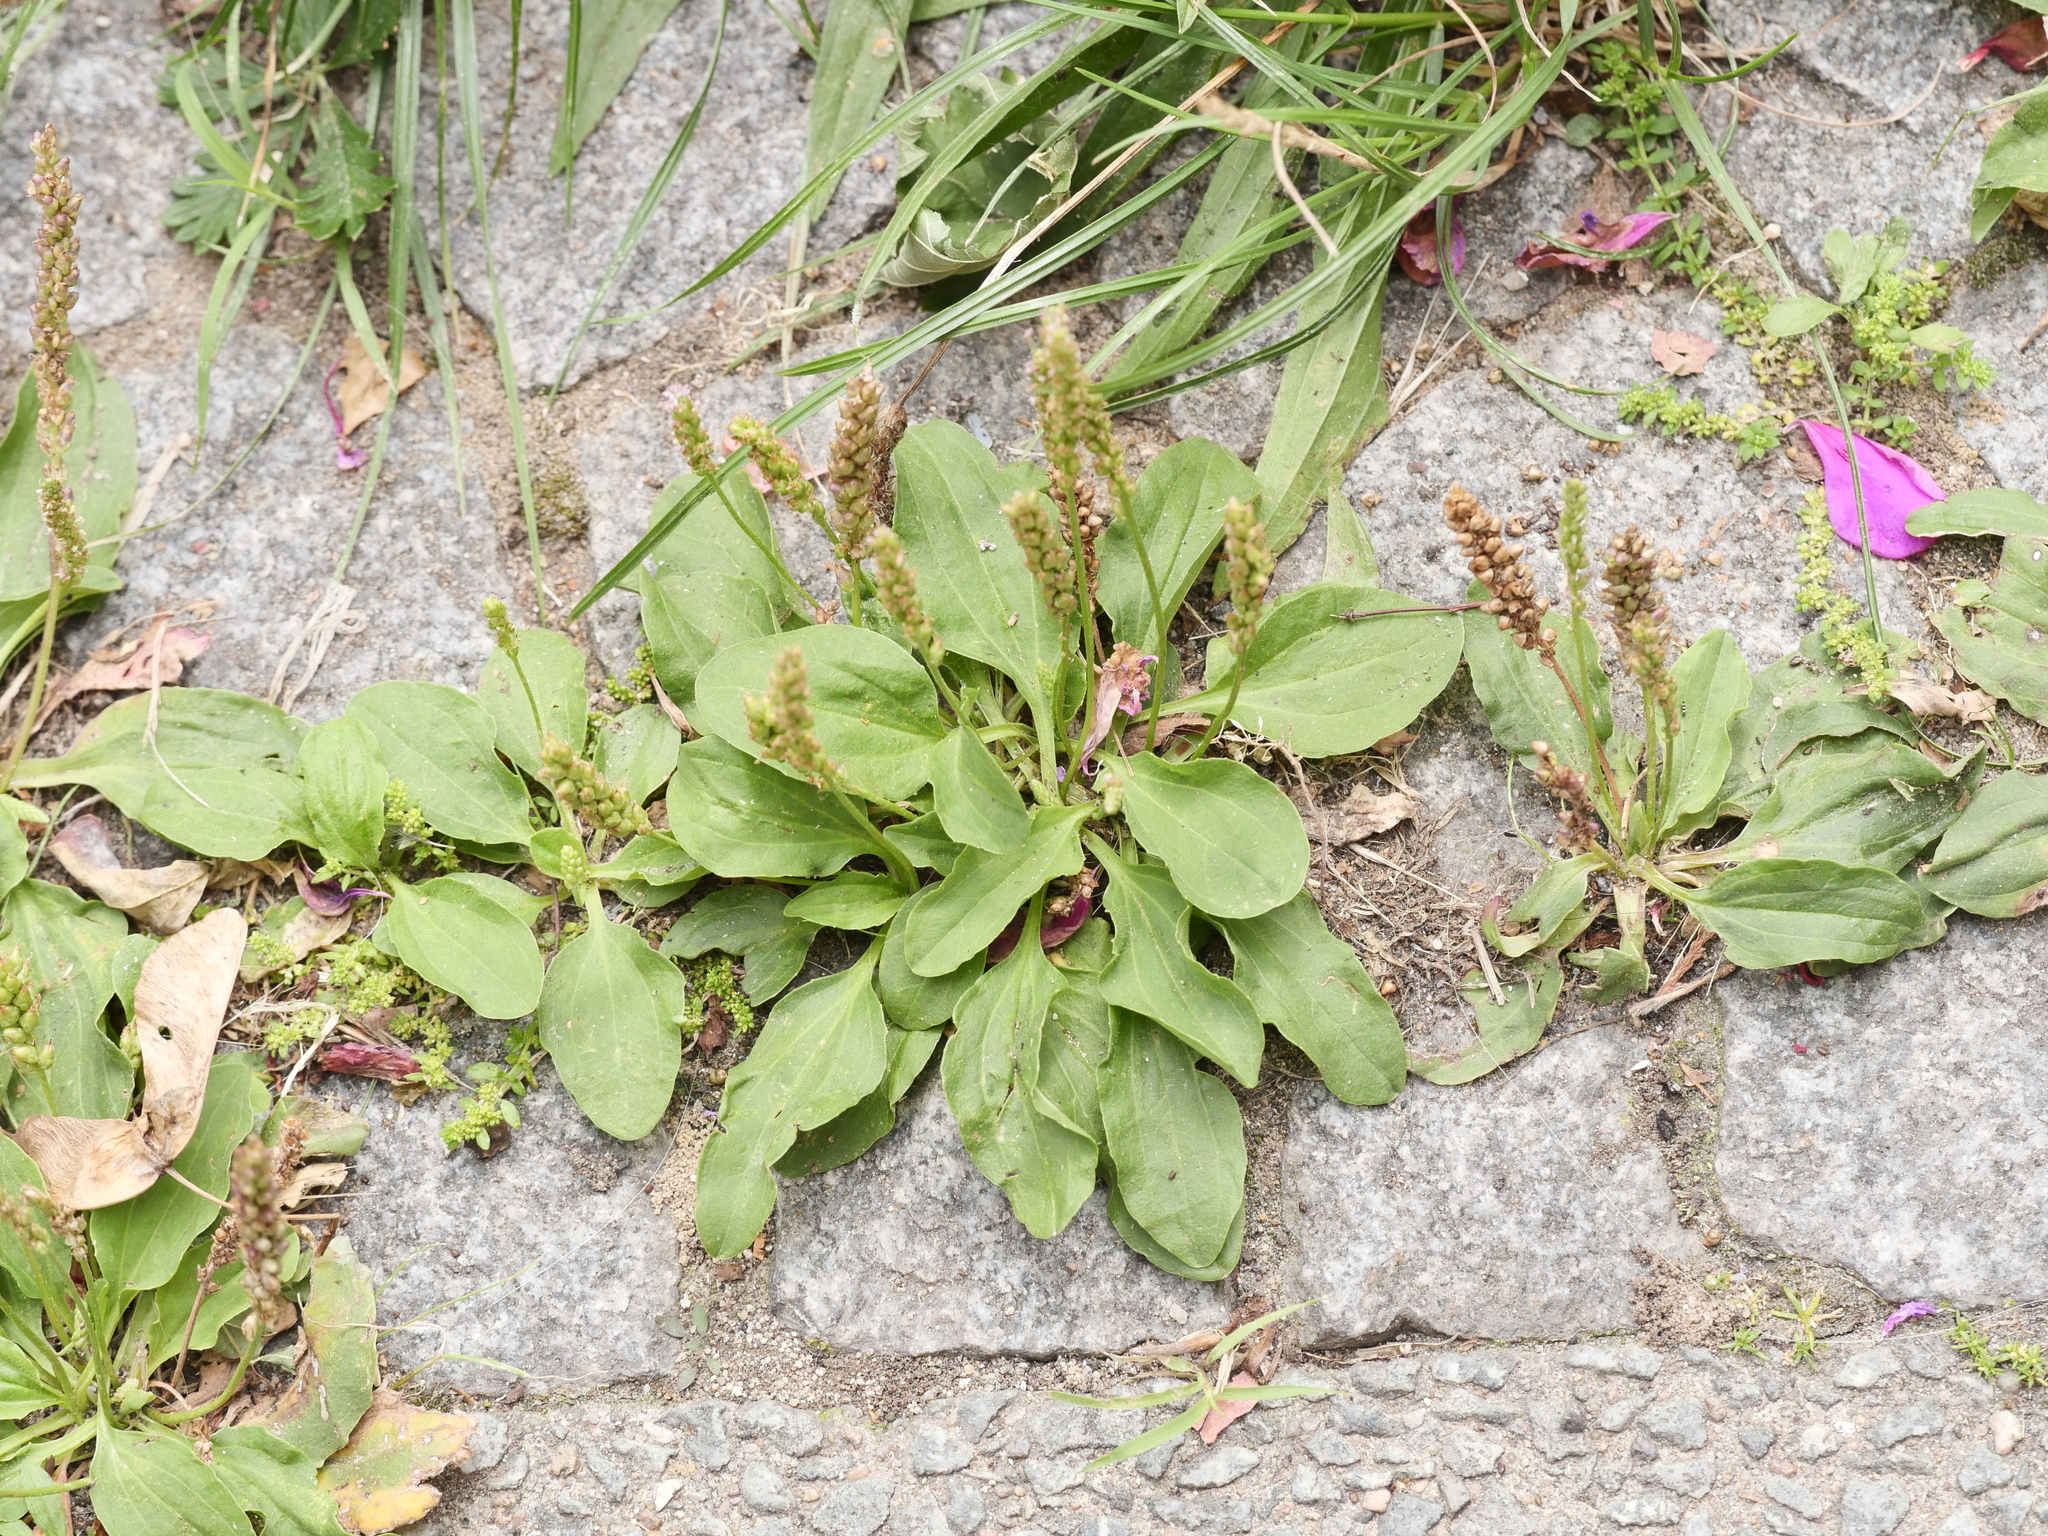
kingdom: Plantae
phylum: Tracheophyta
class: Magnoliopsida
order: Lamiales
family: Plantaginaceae
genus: Plantago
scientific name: Plantago major
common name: Common plantain
